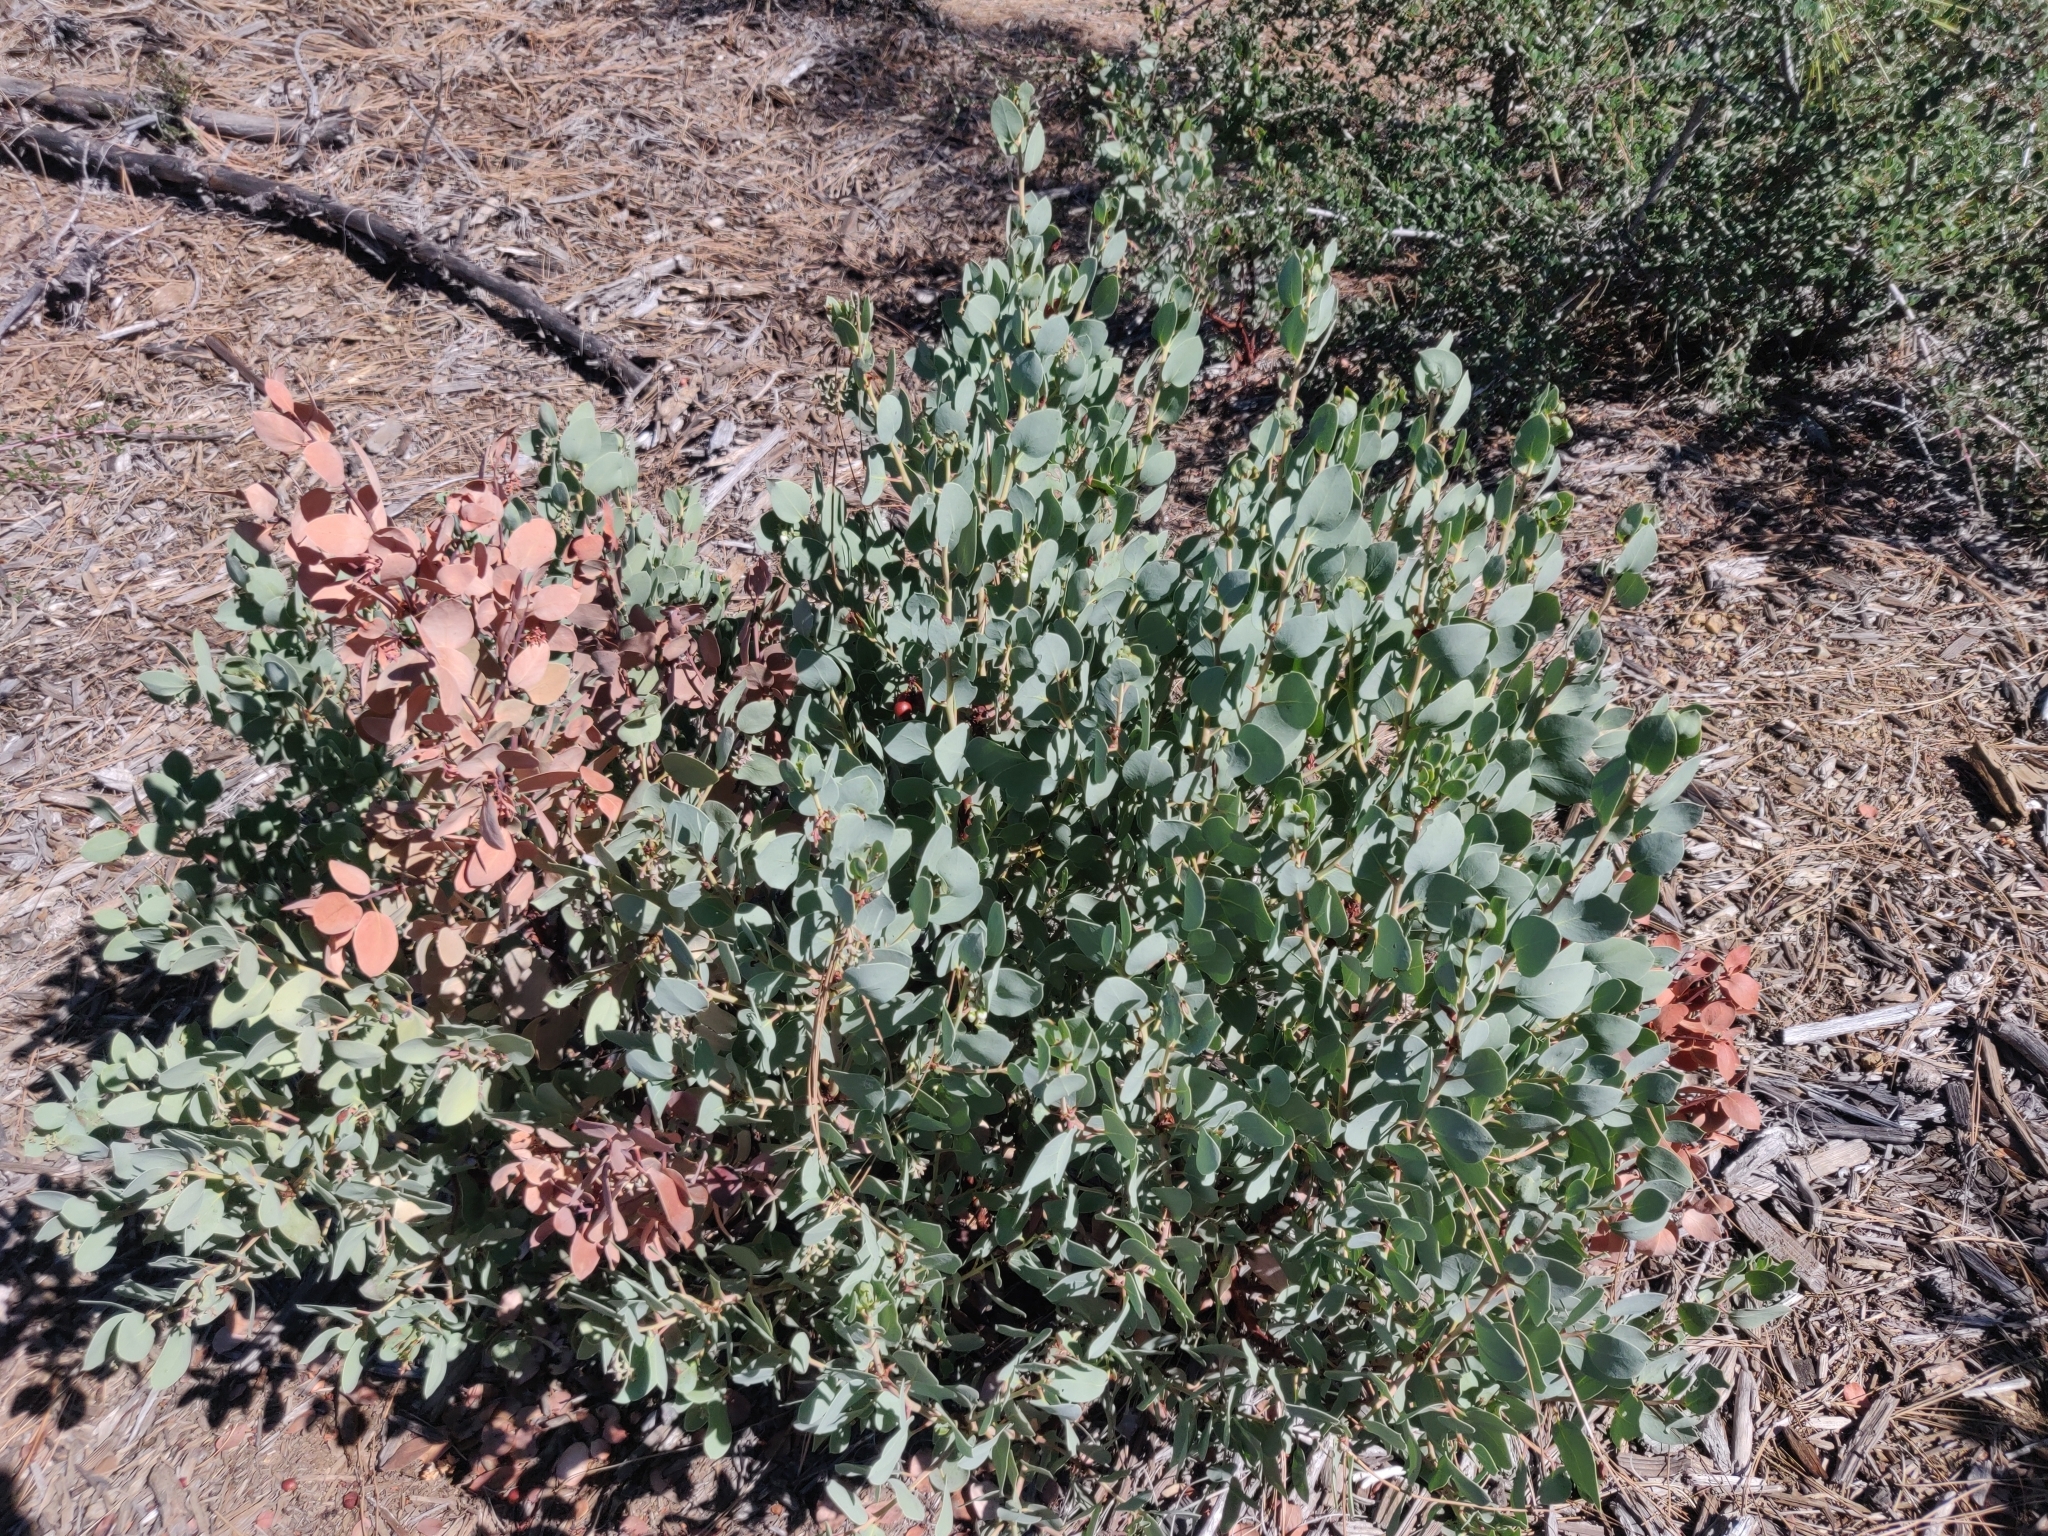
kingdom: Plantae
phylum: Tracheophyta
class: Magnoliopsida
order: Ericales
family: Ericaceae
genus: Arctostaphylos
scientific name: Arctostaphylos glauca
